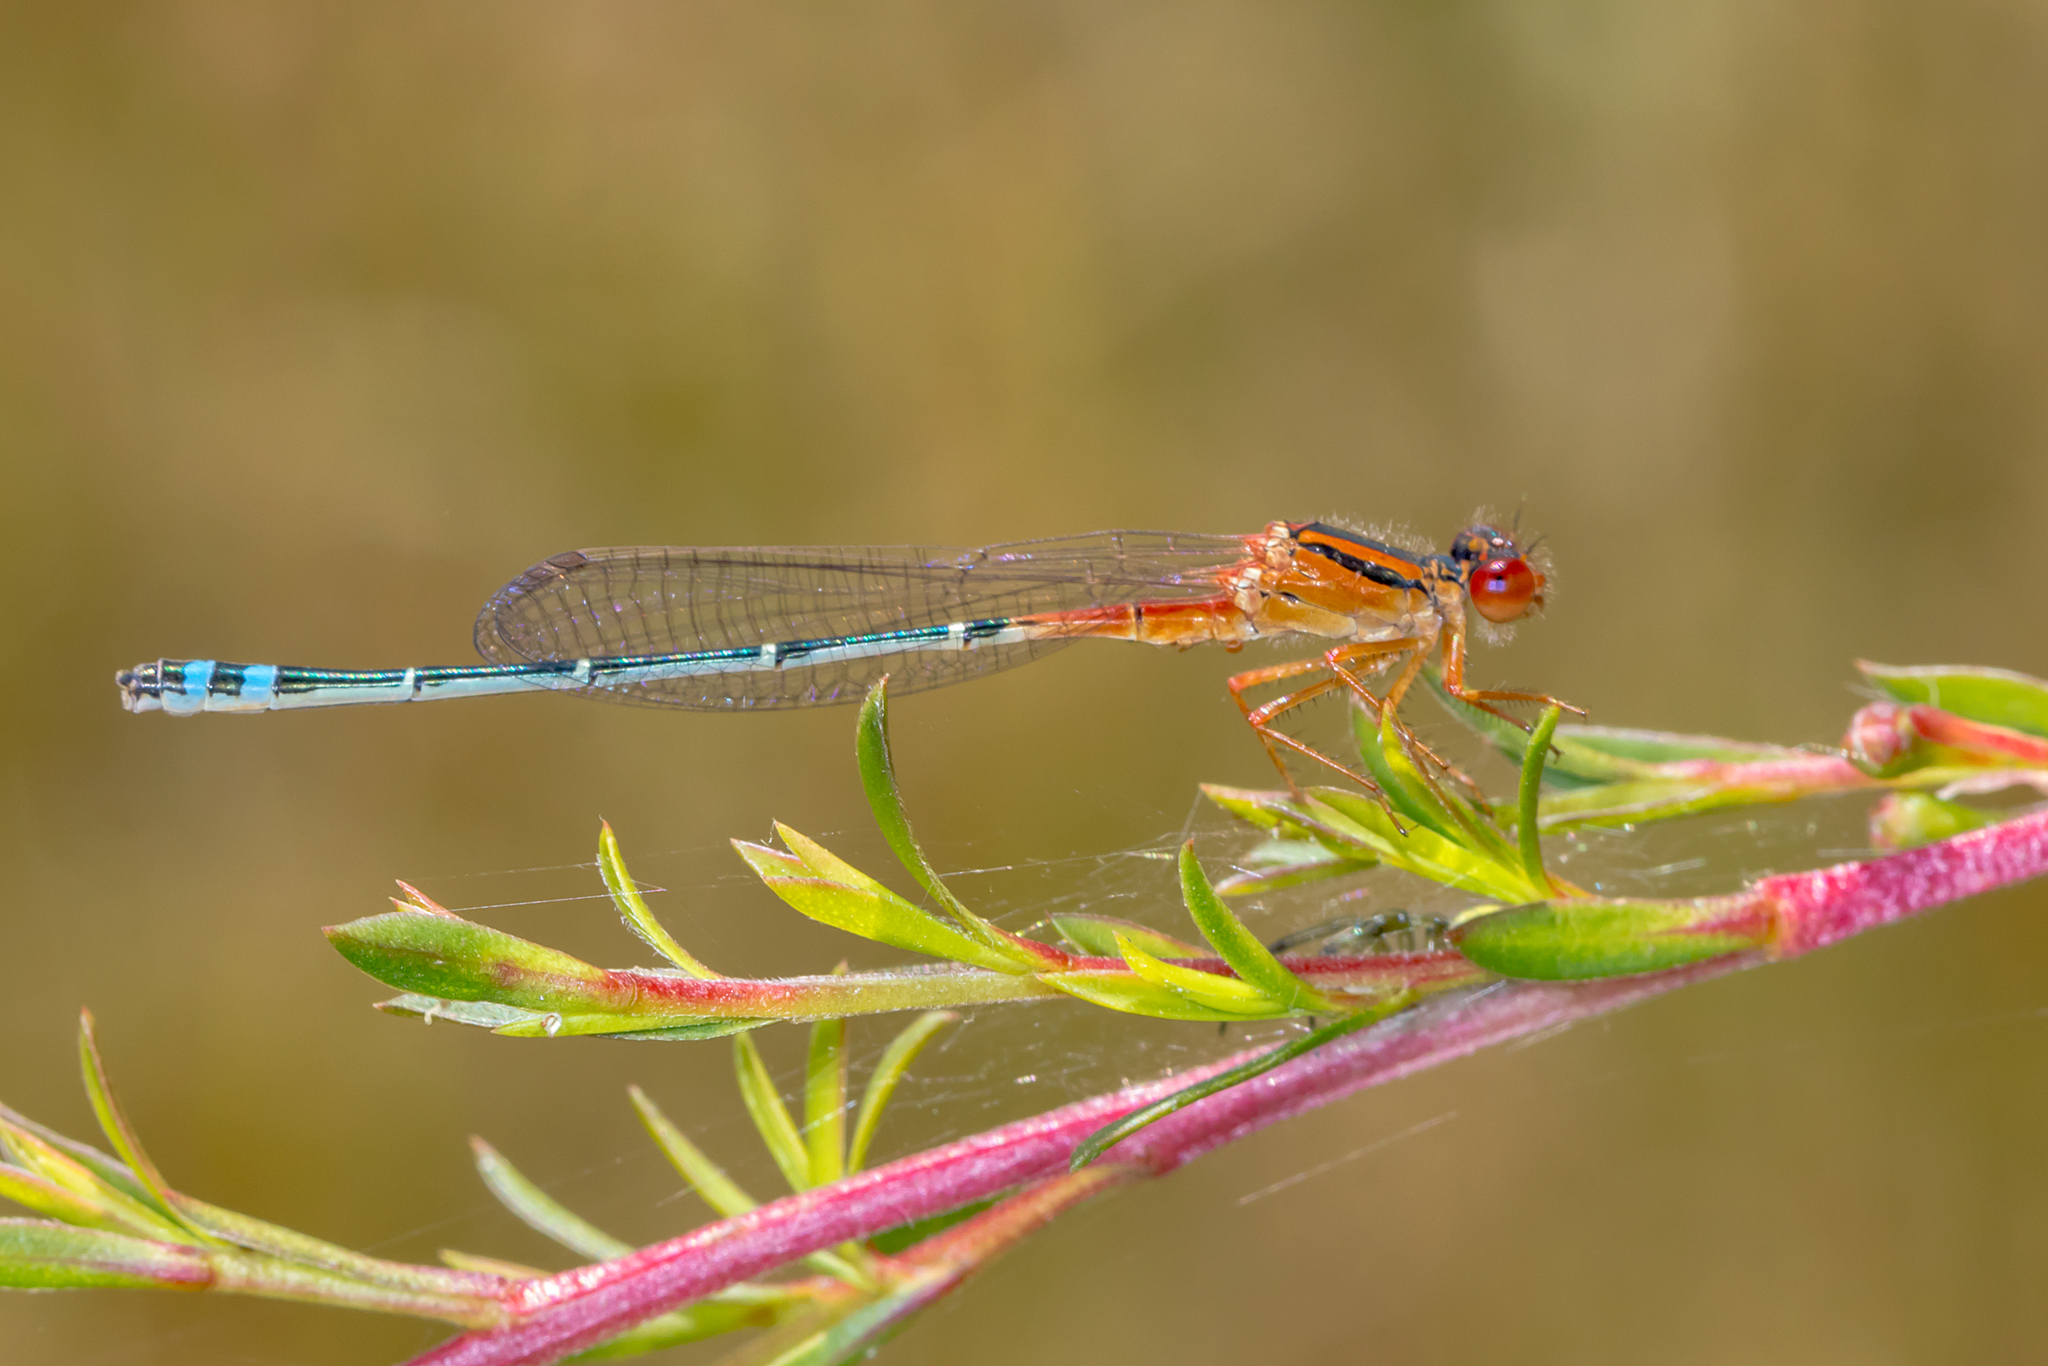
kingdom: Animalia
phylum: Arthropoda
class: Insecta
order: Odonata
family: Coenagrionidae
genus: Xanthagrion
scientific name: Xanthagrion erythroneurum
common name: Red and blue damsel
